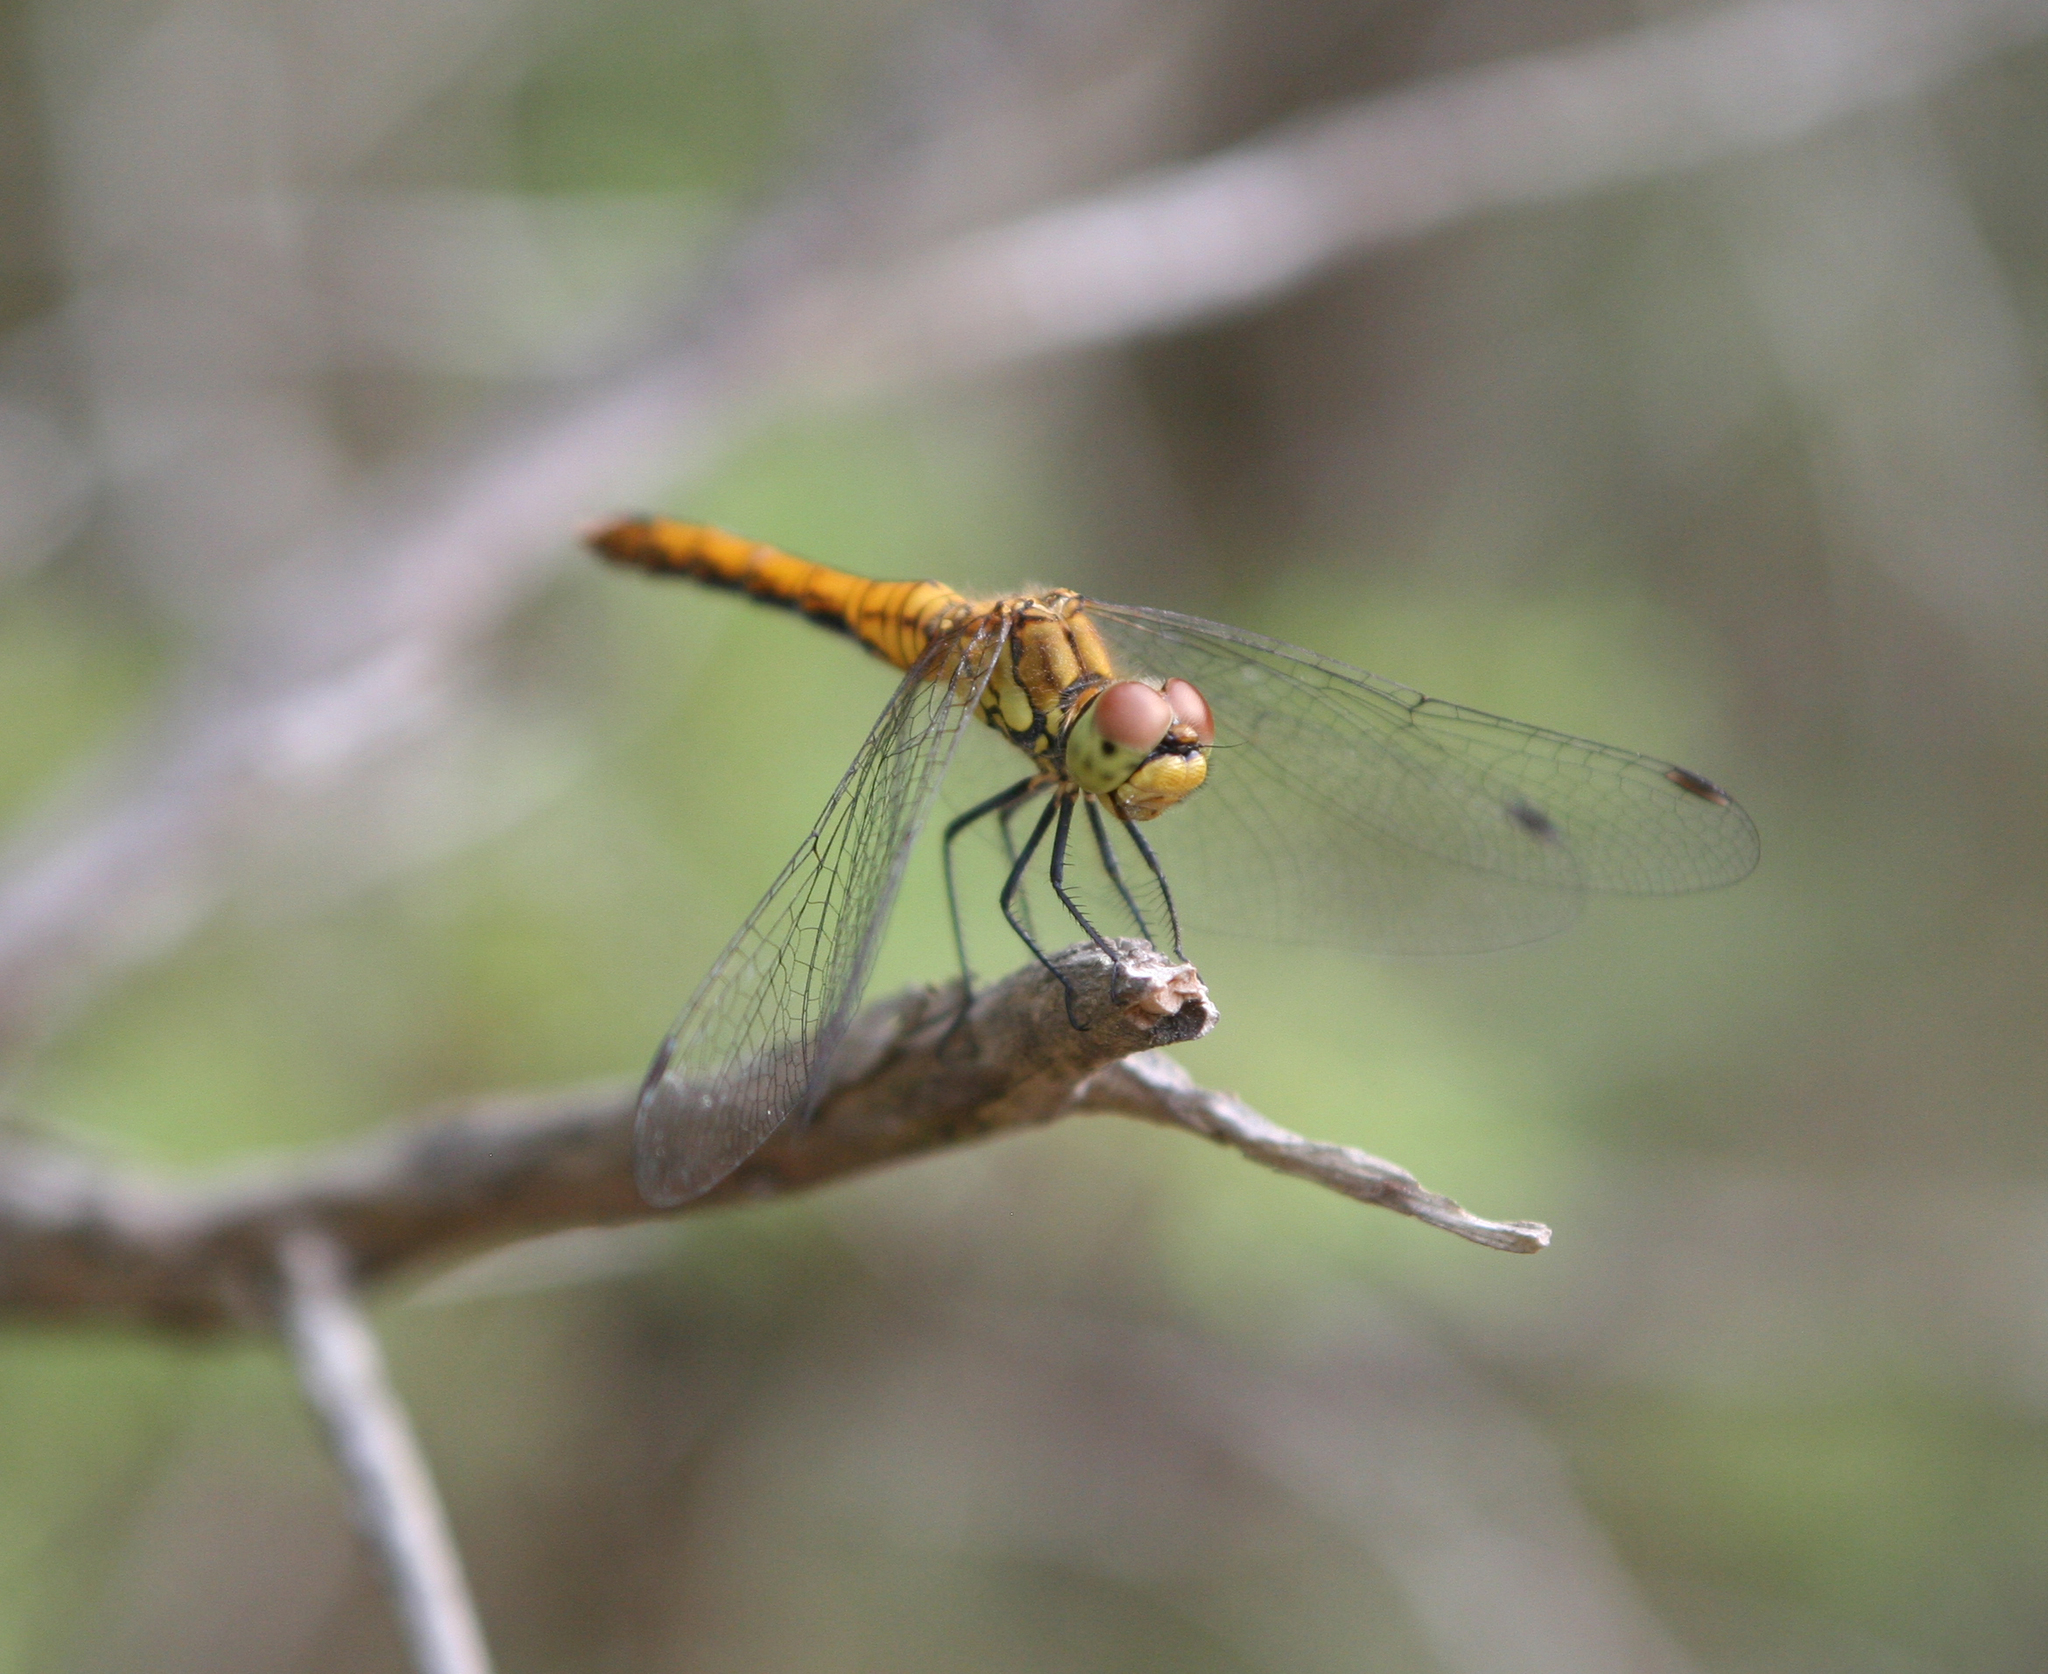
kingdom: Animalia
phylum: Arthropoda
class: Insecta
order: Odonata
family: Libellulidae
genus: Sympetrum
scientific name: Sympetrum sanguineum
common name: Ruddy darter
